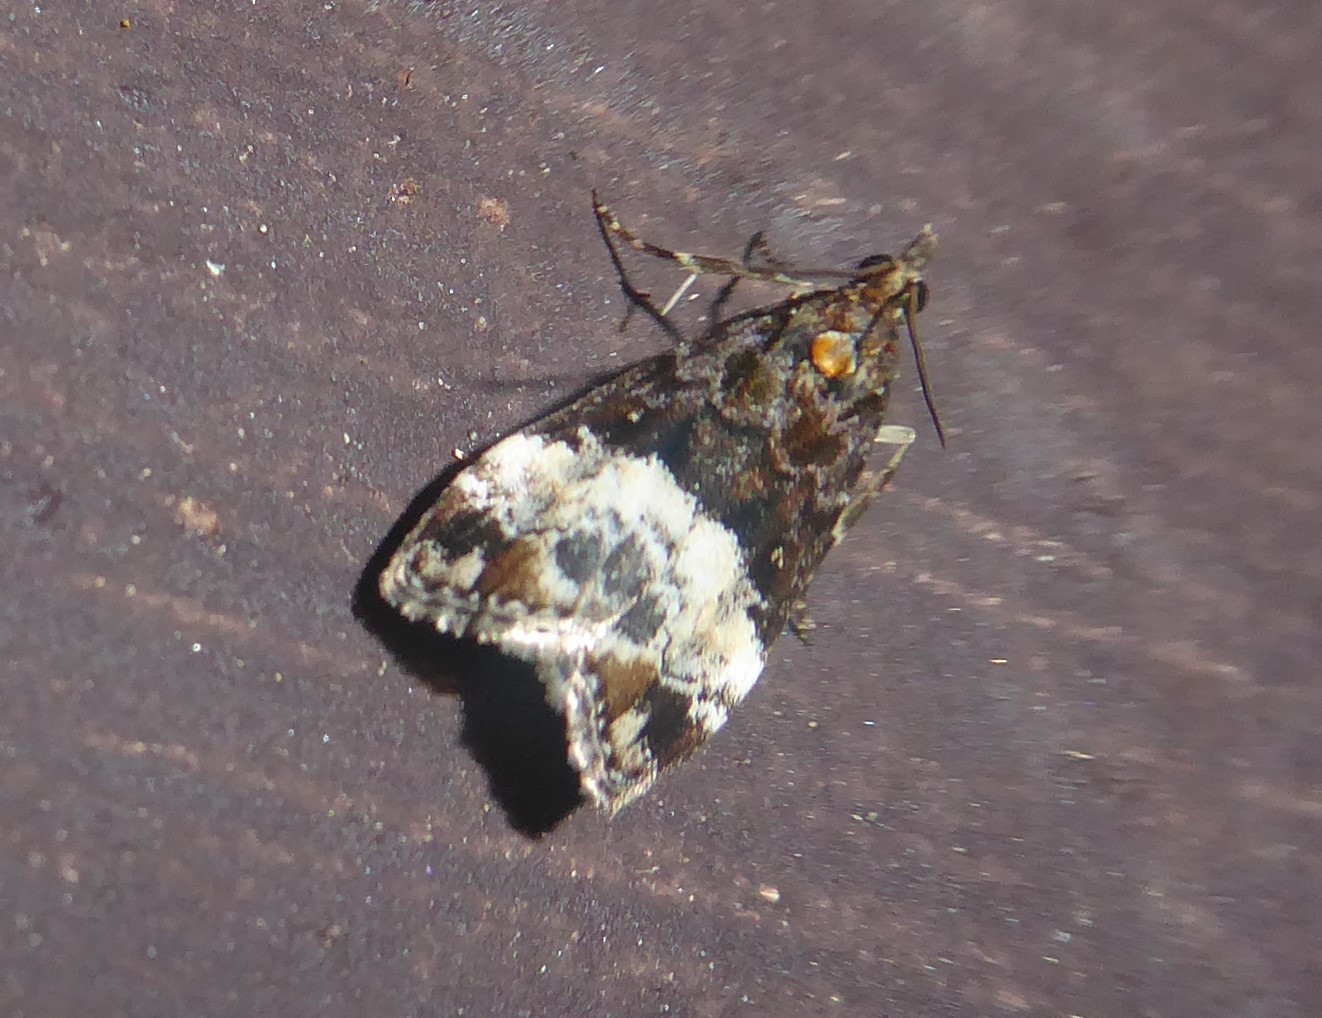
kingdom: Animalia
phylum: Arthropoda
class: Insecta
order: Lepidoptera
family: Crambidae
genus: Scoparia
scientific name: Scoparia minusculalis
